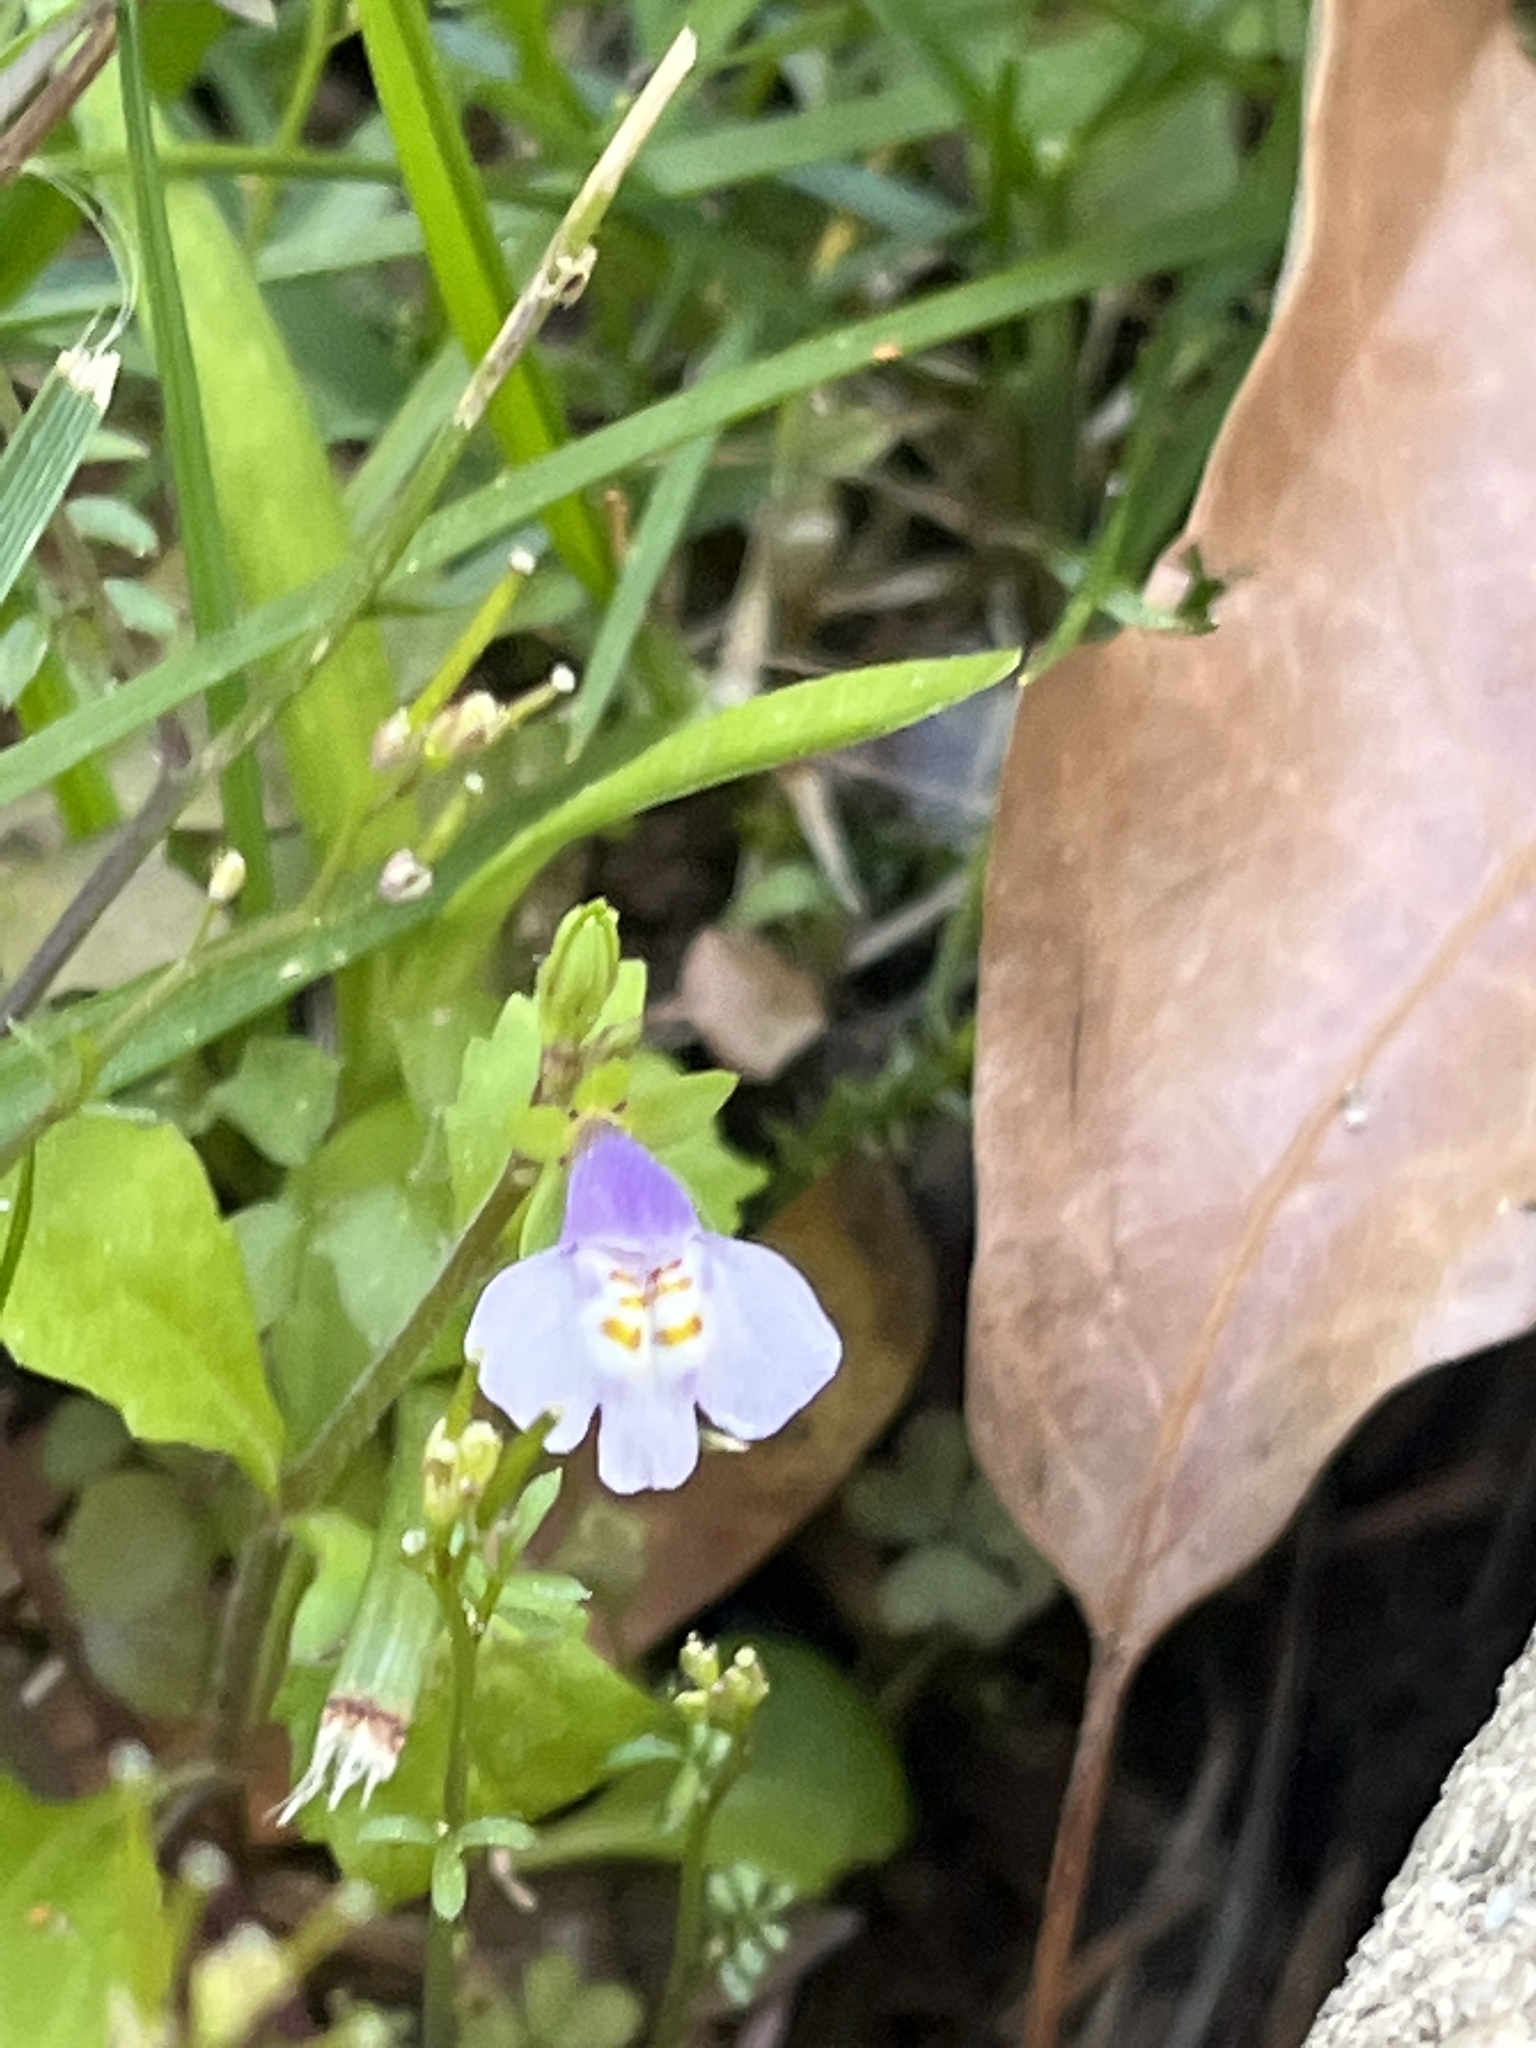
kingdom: Plantae
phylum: Tracheophyta
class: Magnoliopsida
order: Lamiales
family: Mazaceae
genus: Mazus
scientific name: Mazus pumilus
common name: Japanese mazus
